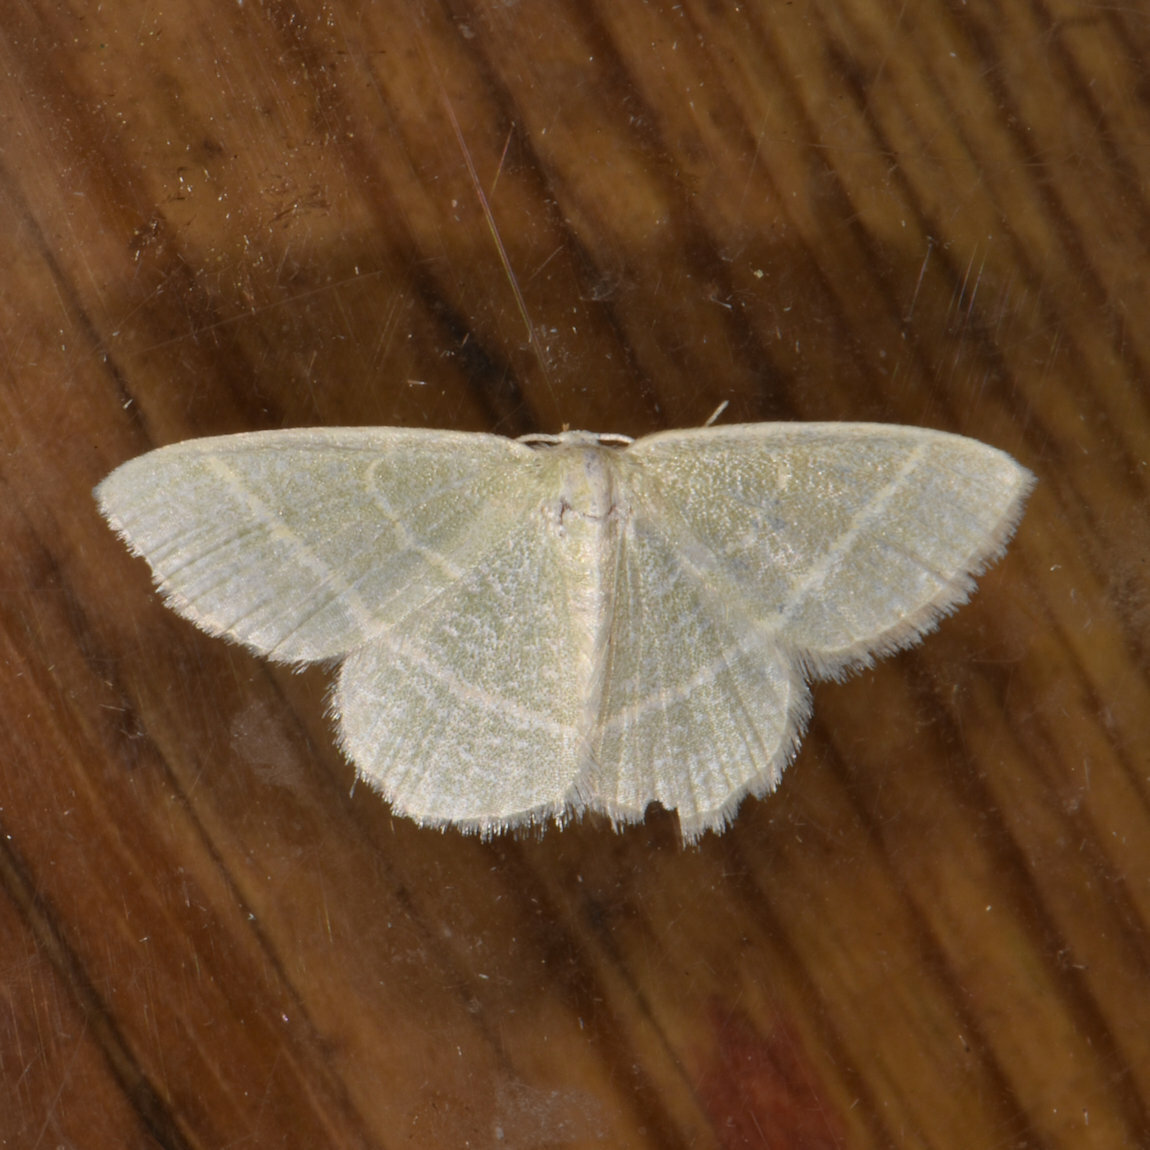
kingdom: Animalia
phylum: Arthropoda
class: Insecta
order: Lepidoptera
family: Geometridae
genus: Chlorochlamys
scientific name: Chlorochlamys chloroleucaria
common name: Blackberry looper
